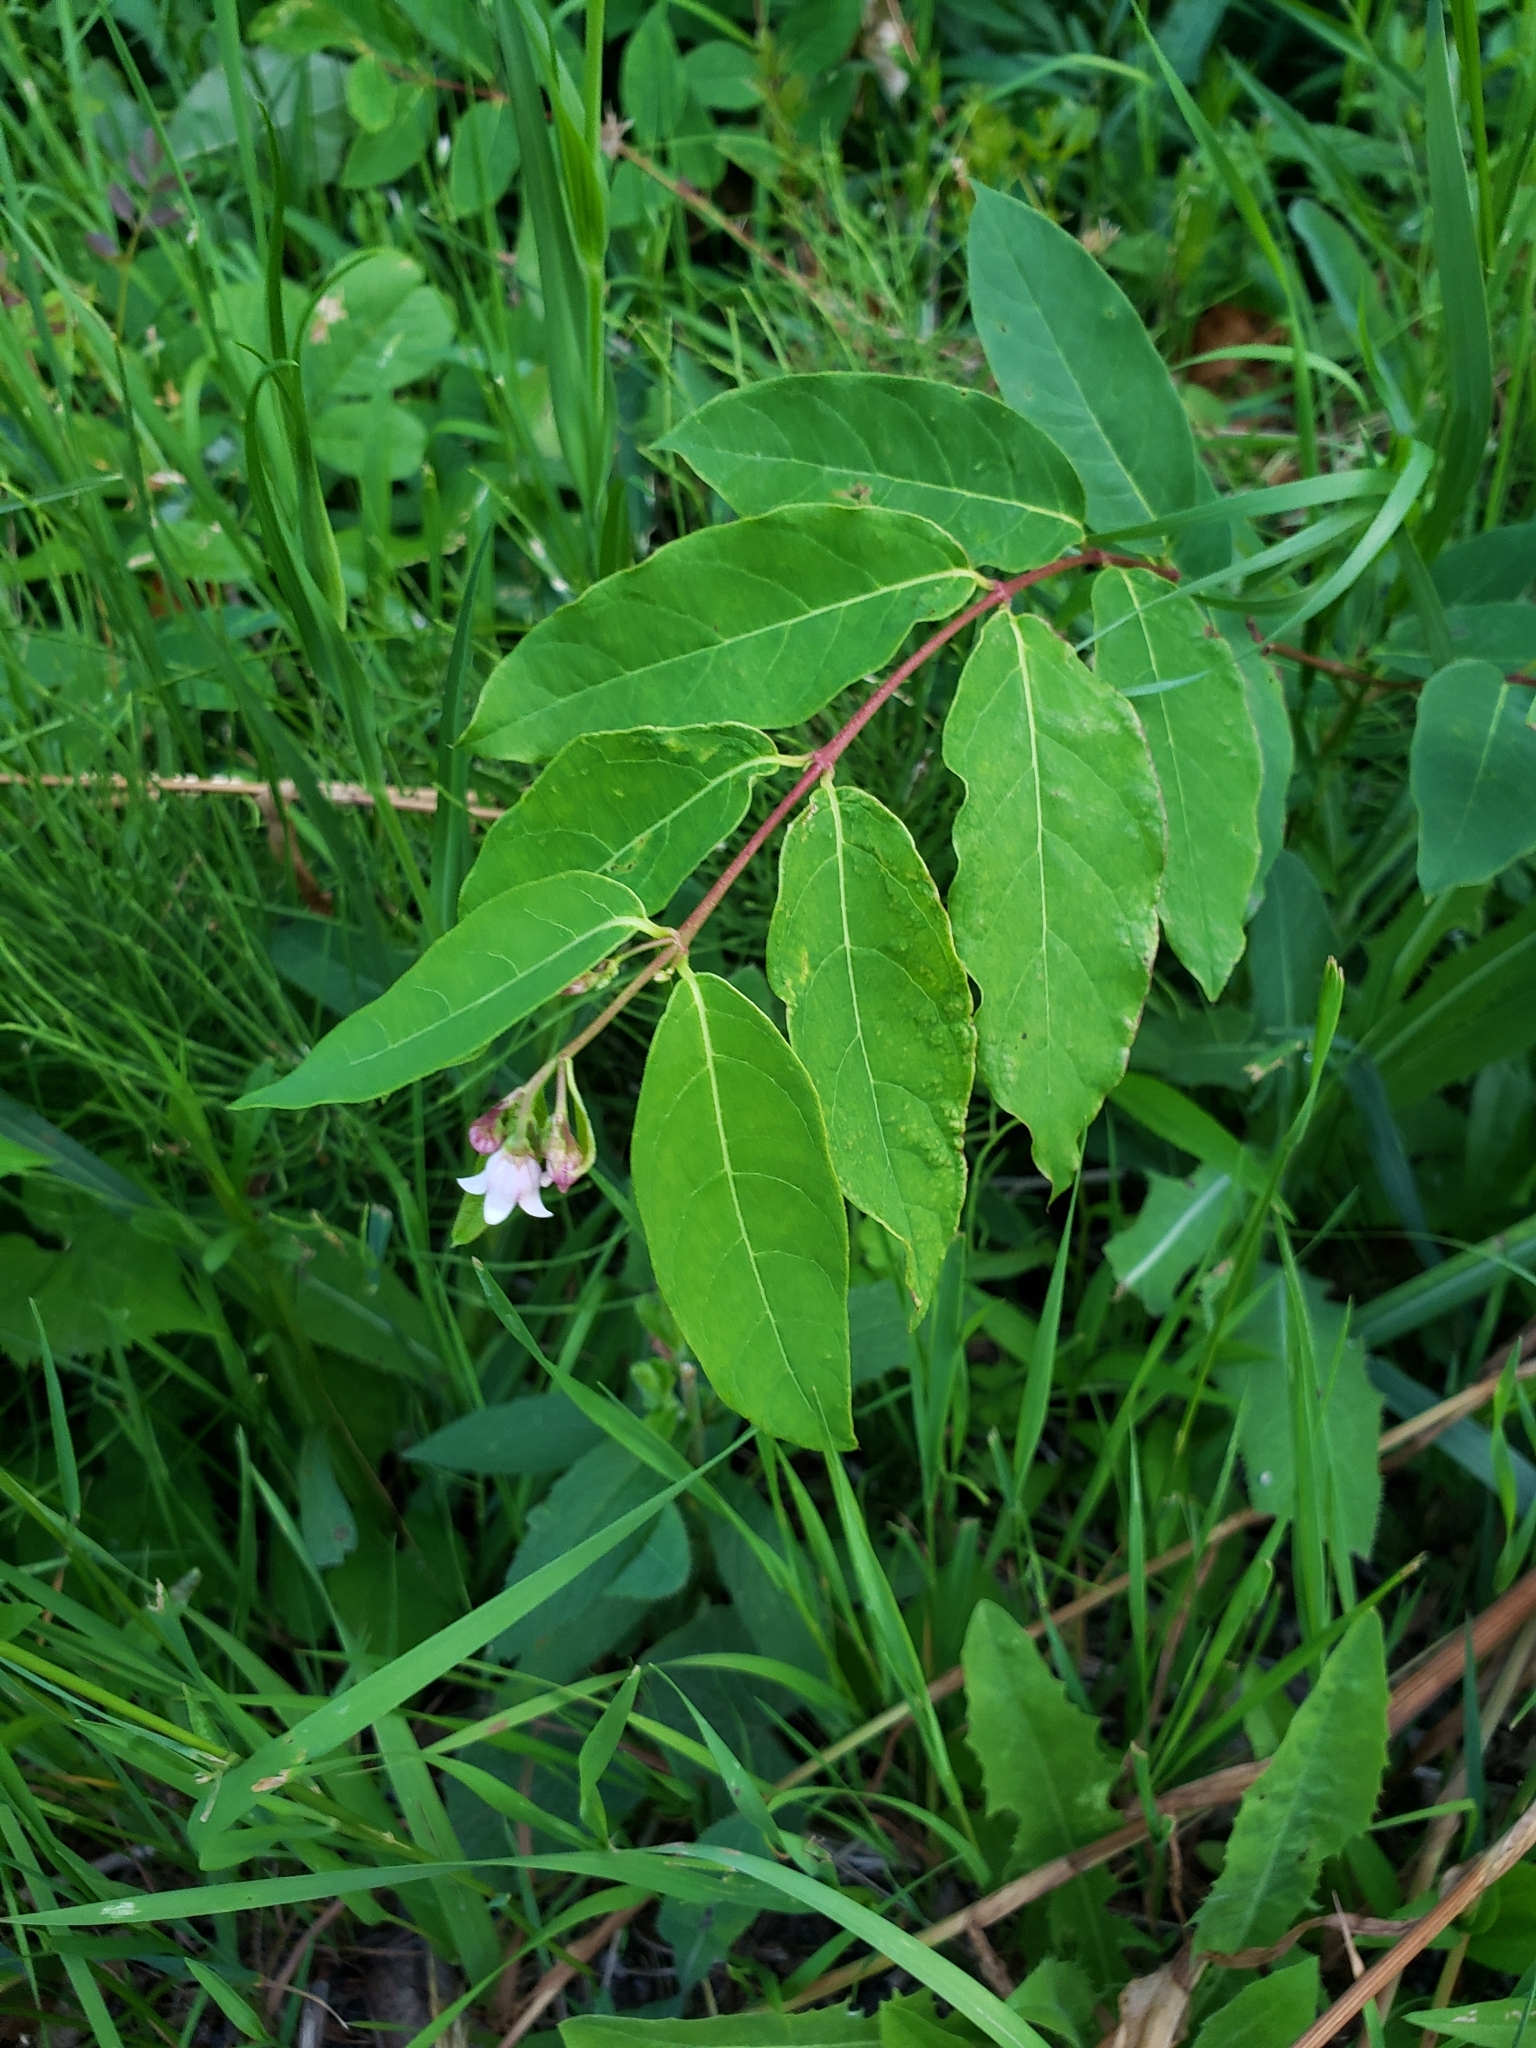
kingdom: Plantae
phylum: Tracheophyta
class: Magnoliopsida
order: Gentianales
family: Apocynaceae
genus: Apocynum
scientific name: Apocynum androsaemifolium
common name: Spreading dogbane
